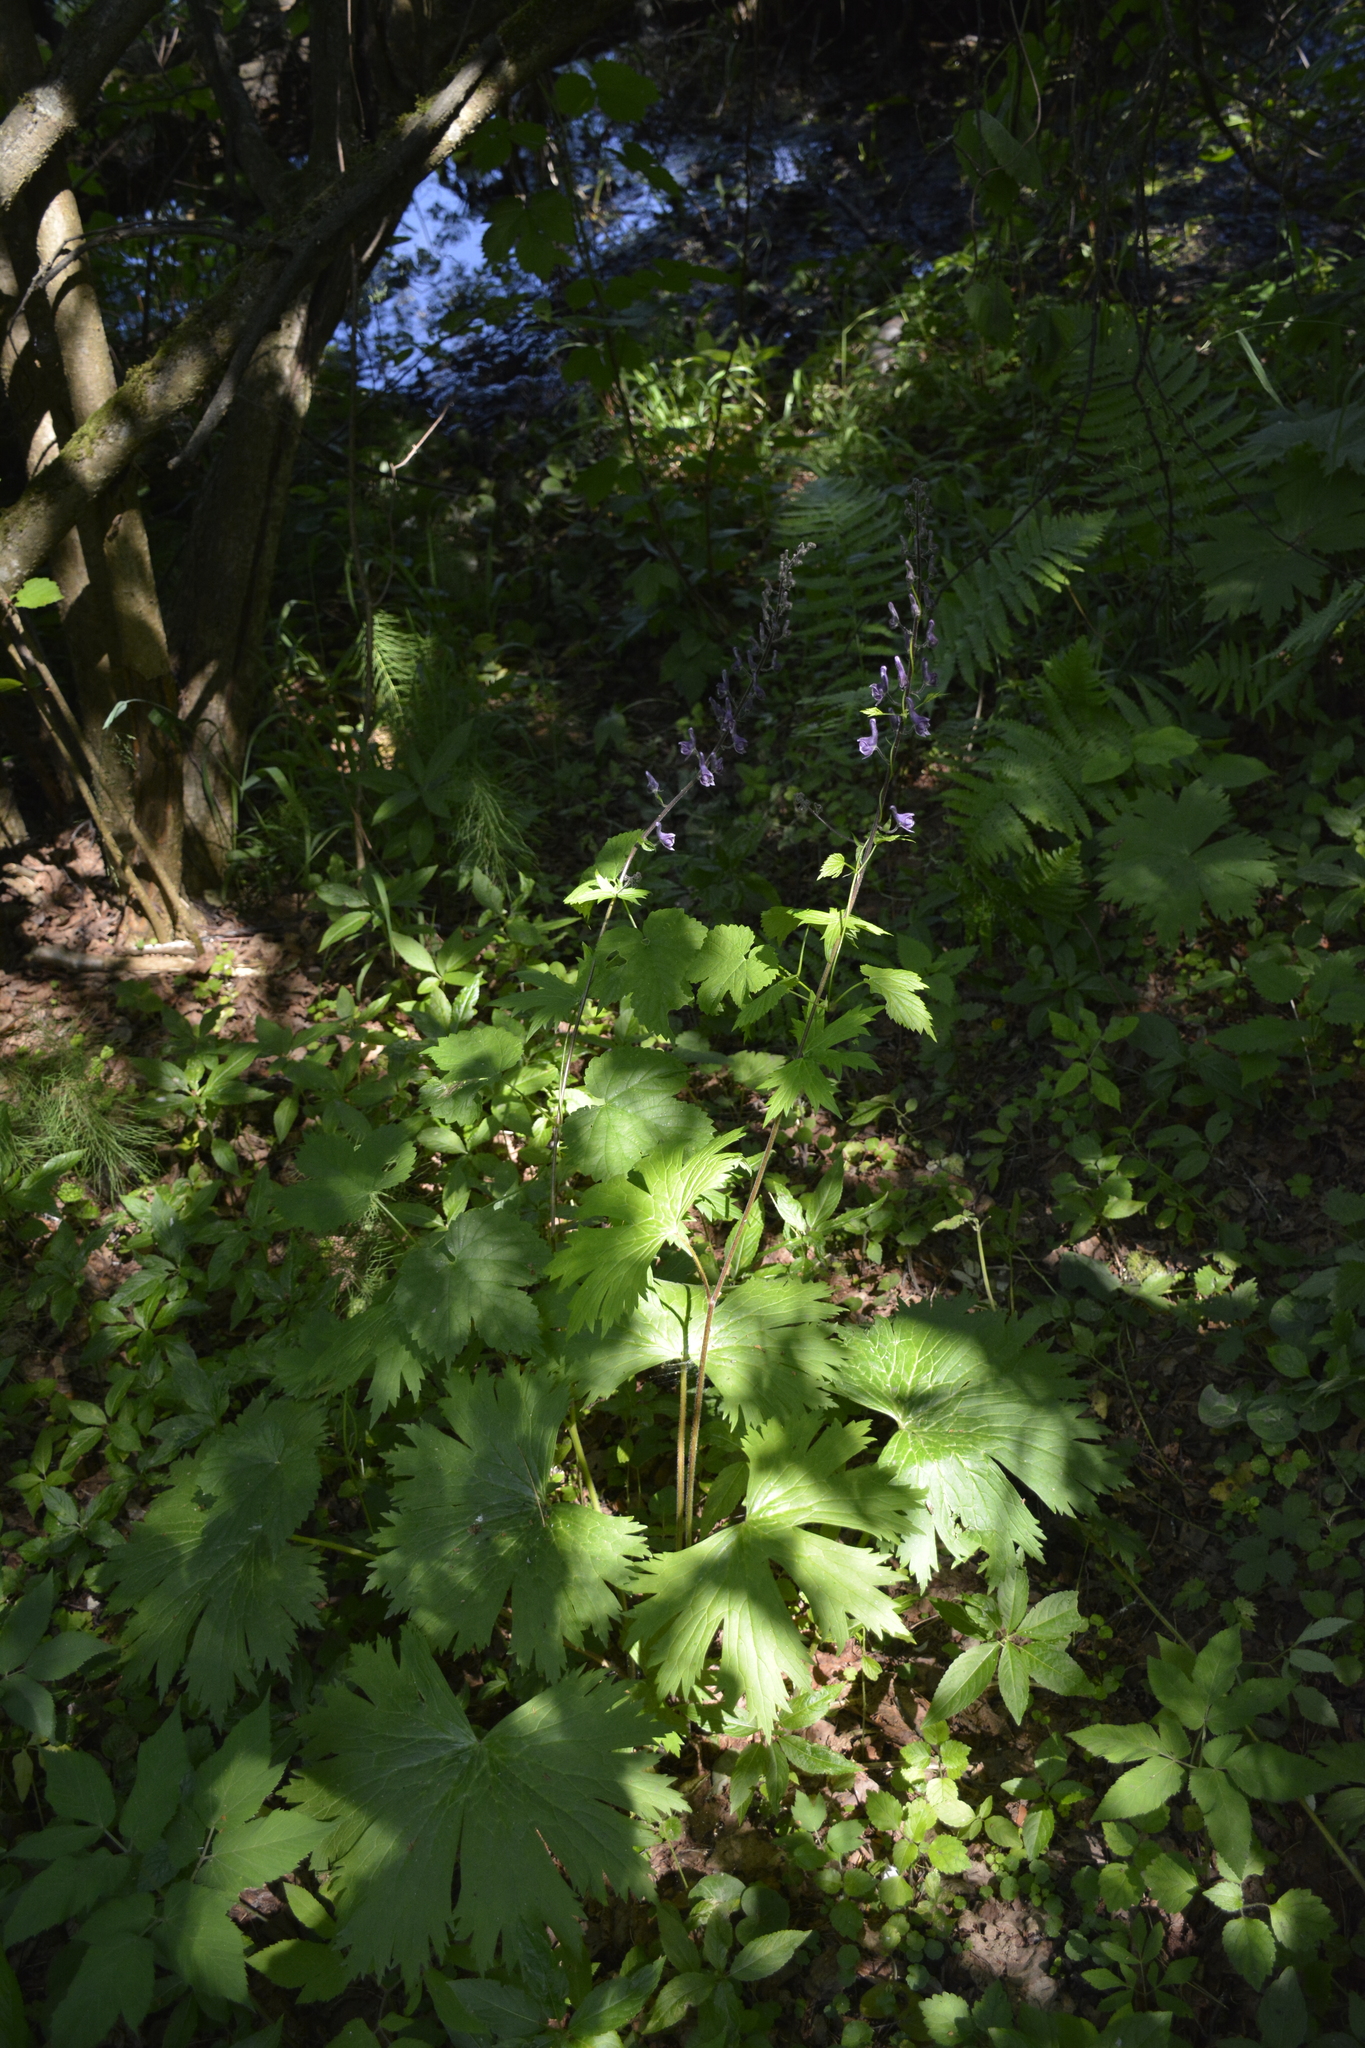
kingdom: Plantae
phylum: Tracheophyta
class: Magnoliopsida
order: Ranunculales
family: Ranunculaceae
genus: Aconitum
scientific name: Aconitum septentrionale
